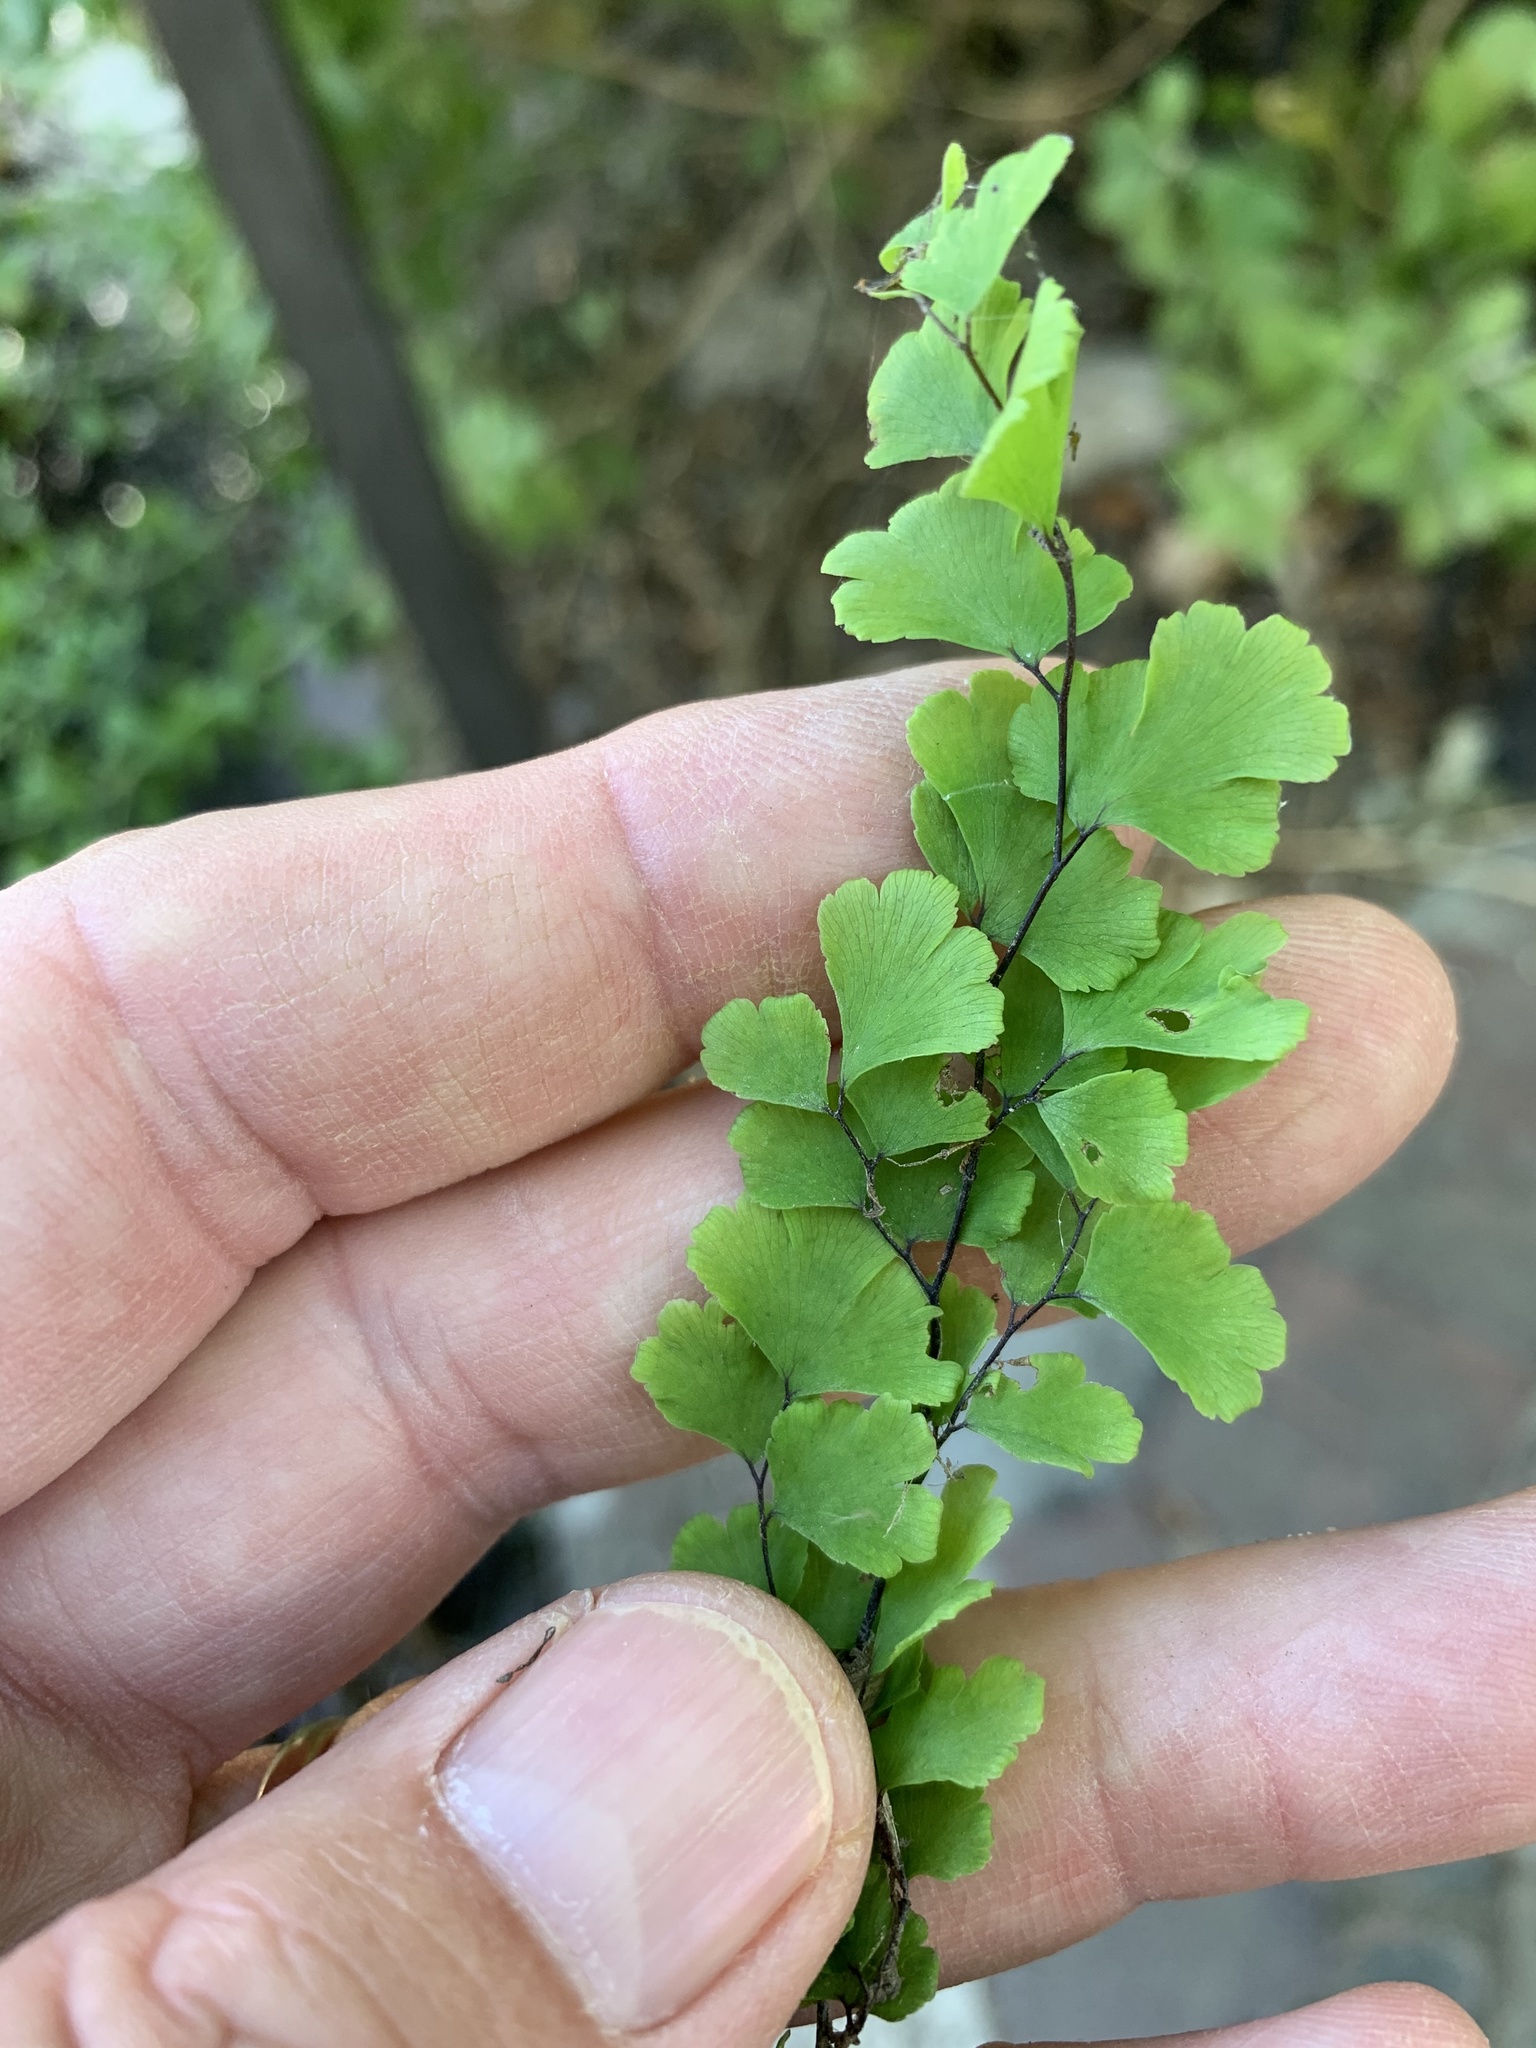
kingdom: Plantae
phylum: Tracheophyta
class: Polypodiopsida
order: Polypodiales
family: Pteridaceae
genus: Adiantum
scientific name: Adiantum capillus-veneris
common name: Maidenhair fern
